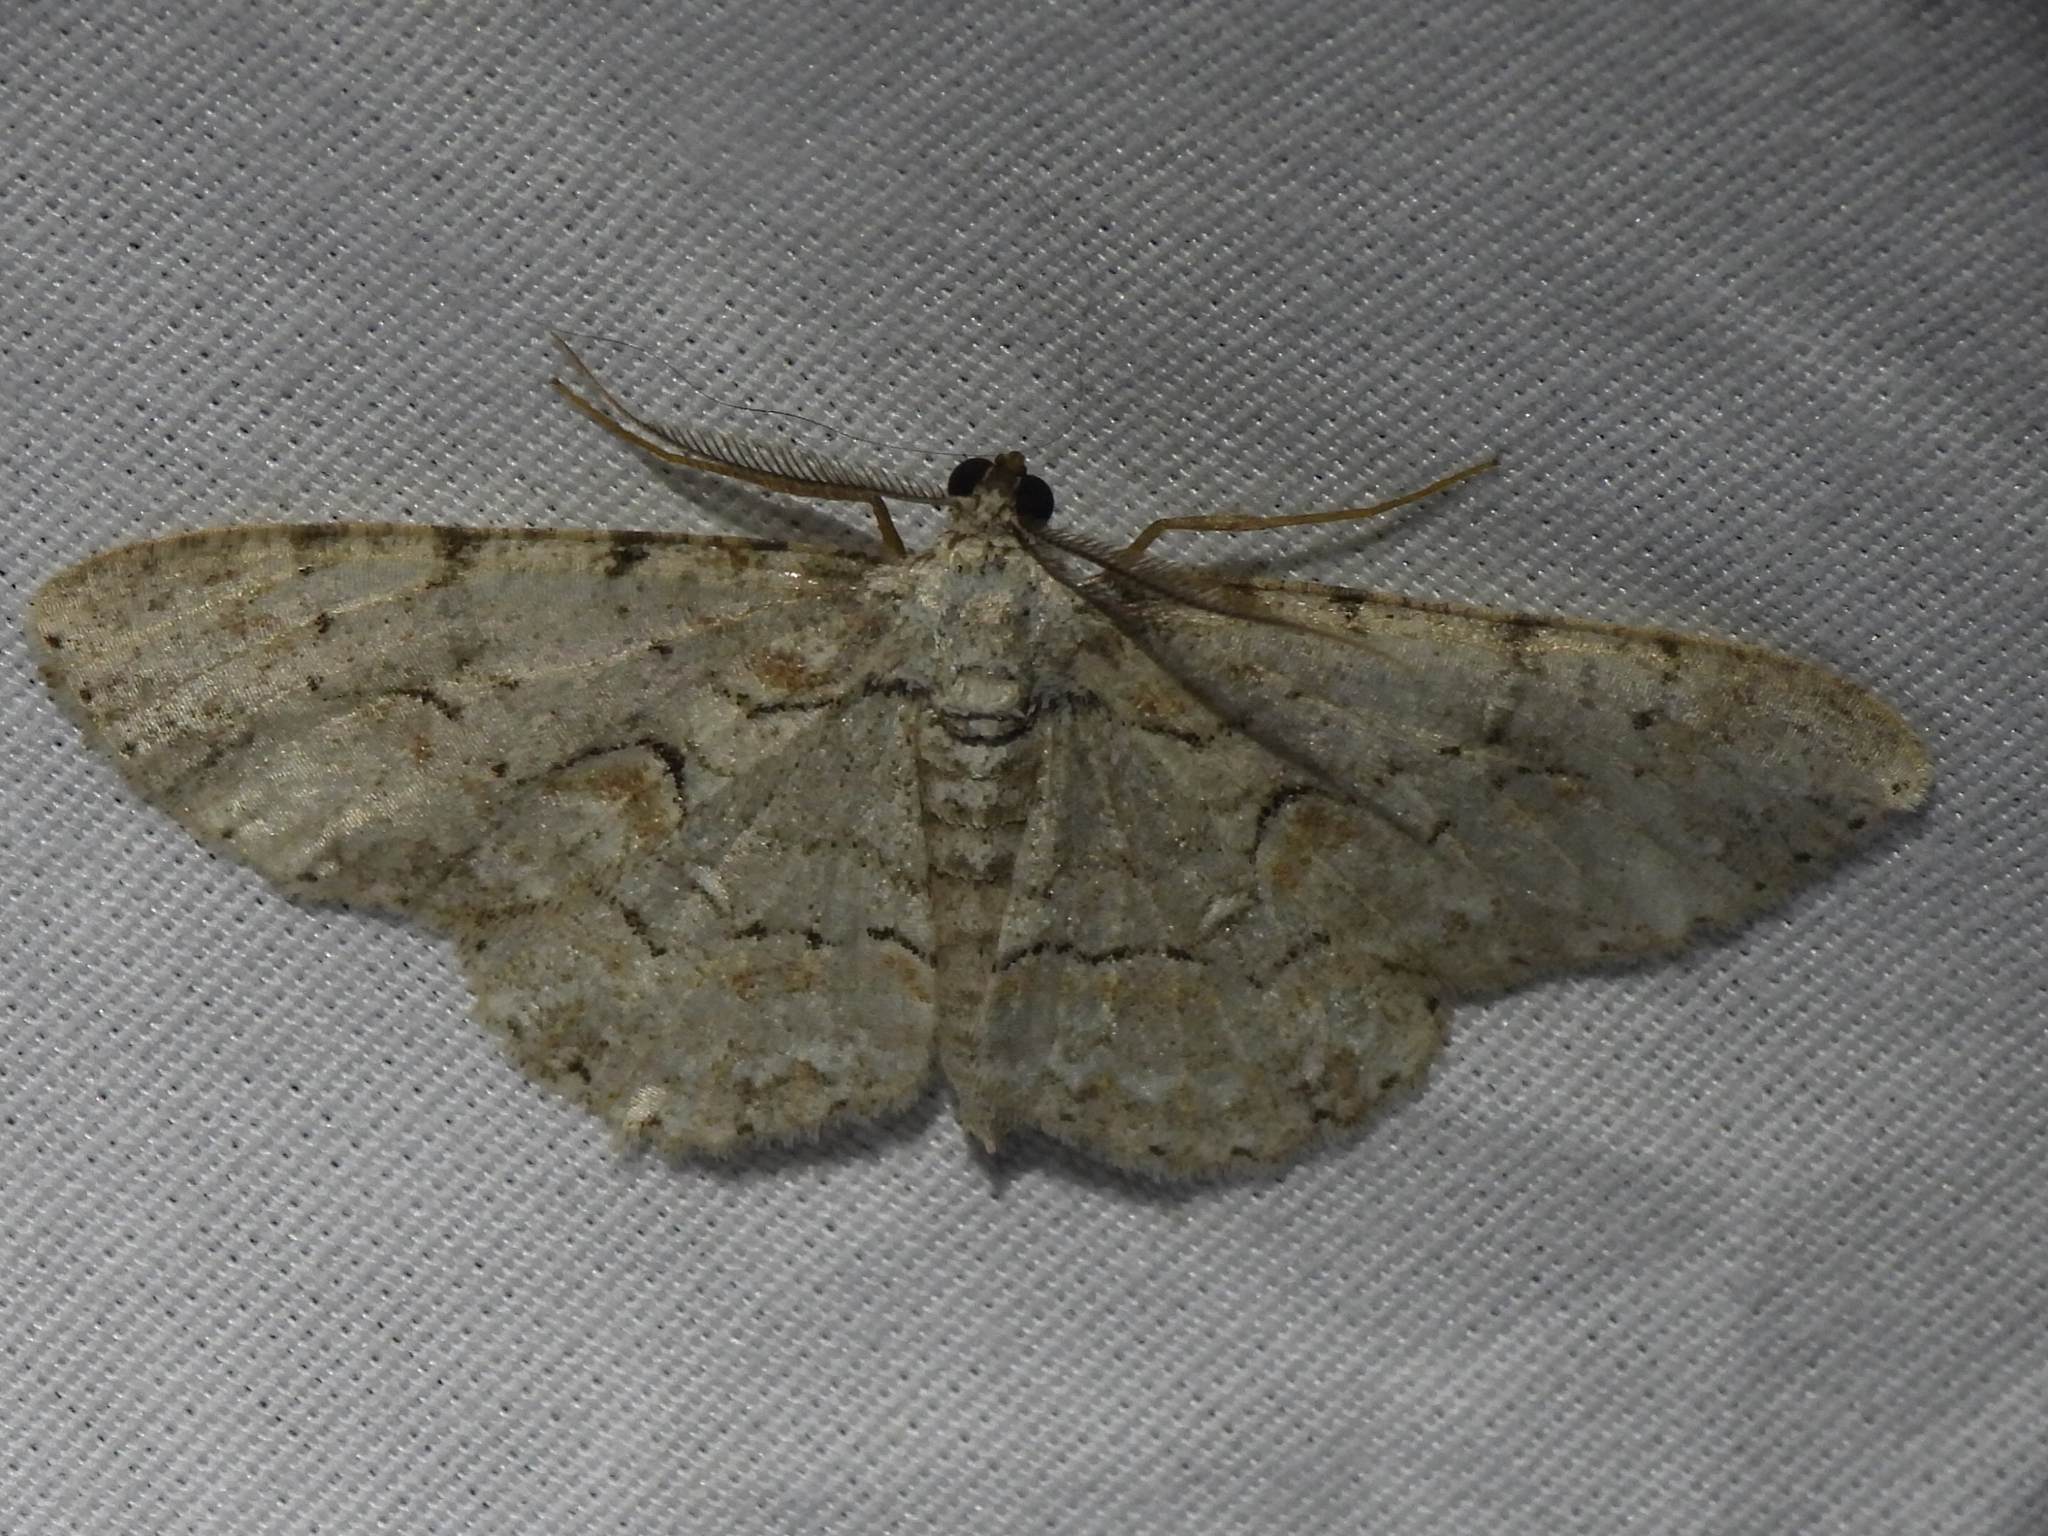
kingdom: Animalia
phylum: Arthropoda
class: Insecta
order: Lepidoptera
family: Geometridae
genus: Iridopsis
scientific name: Iridopsis defectaria
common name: Brown-shaded gray
